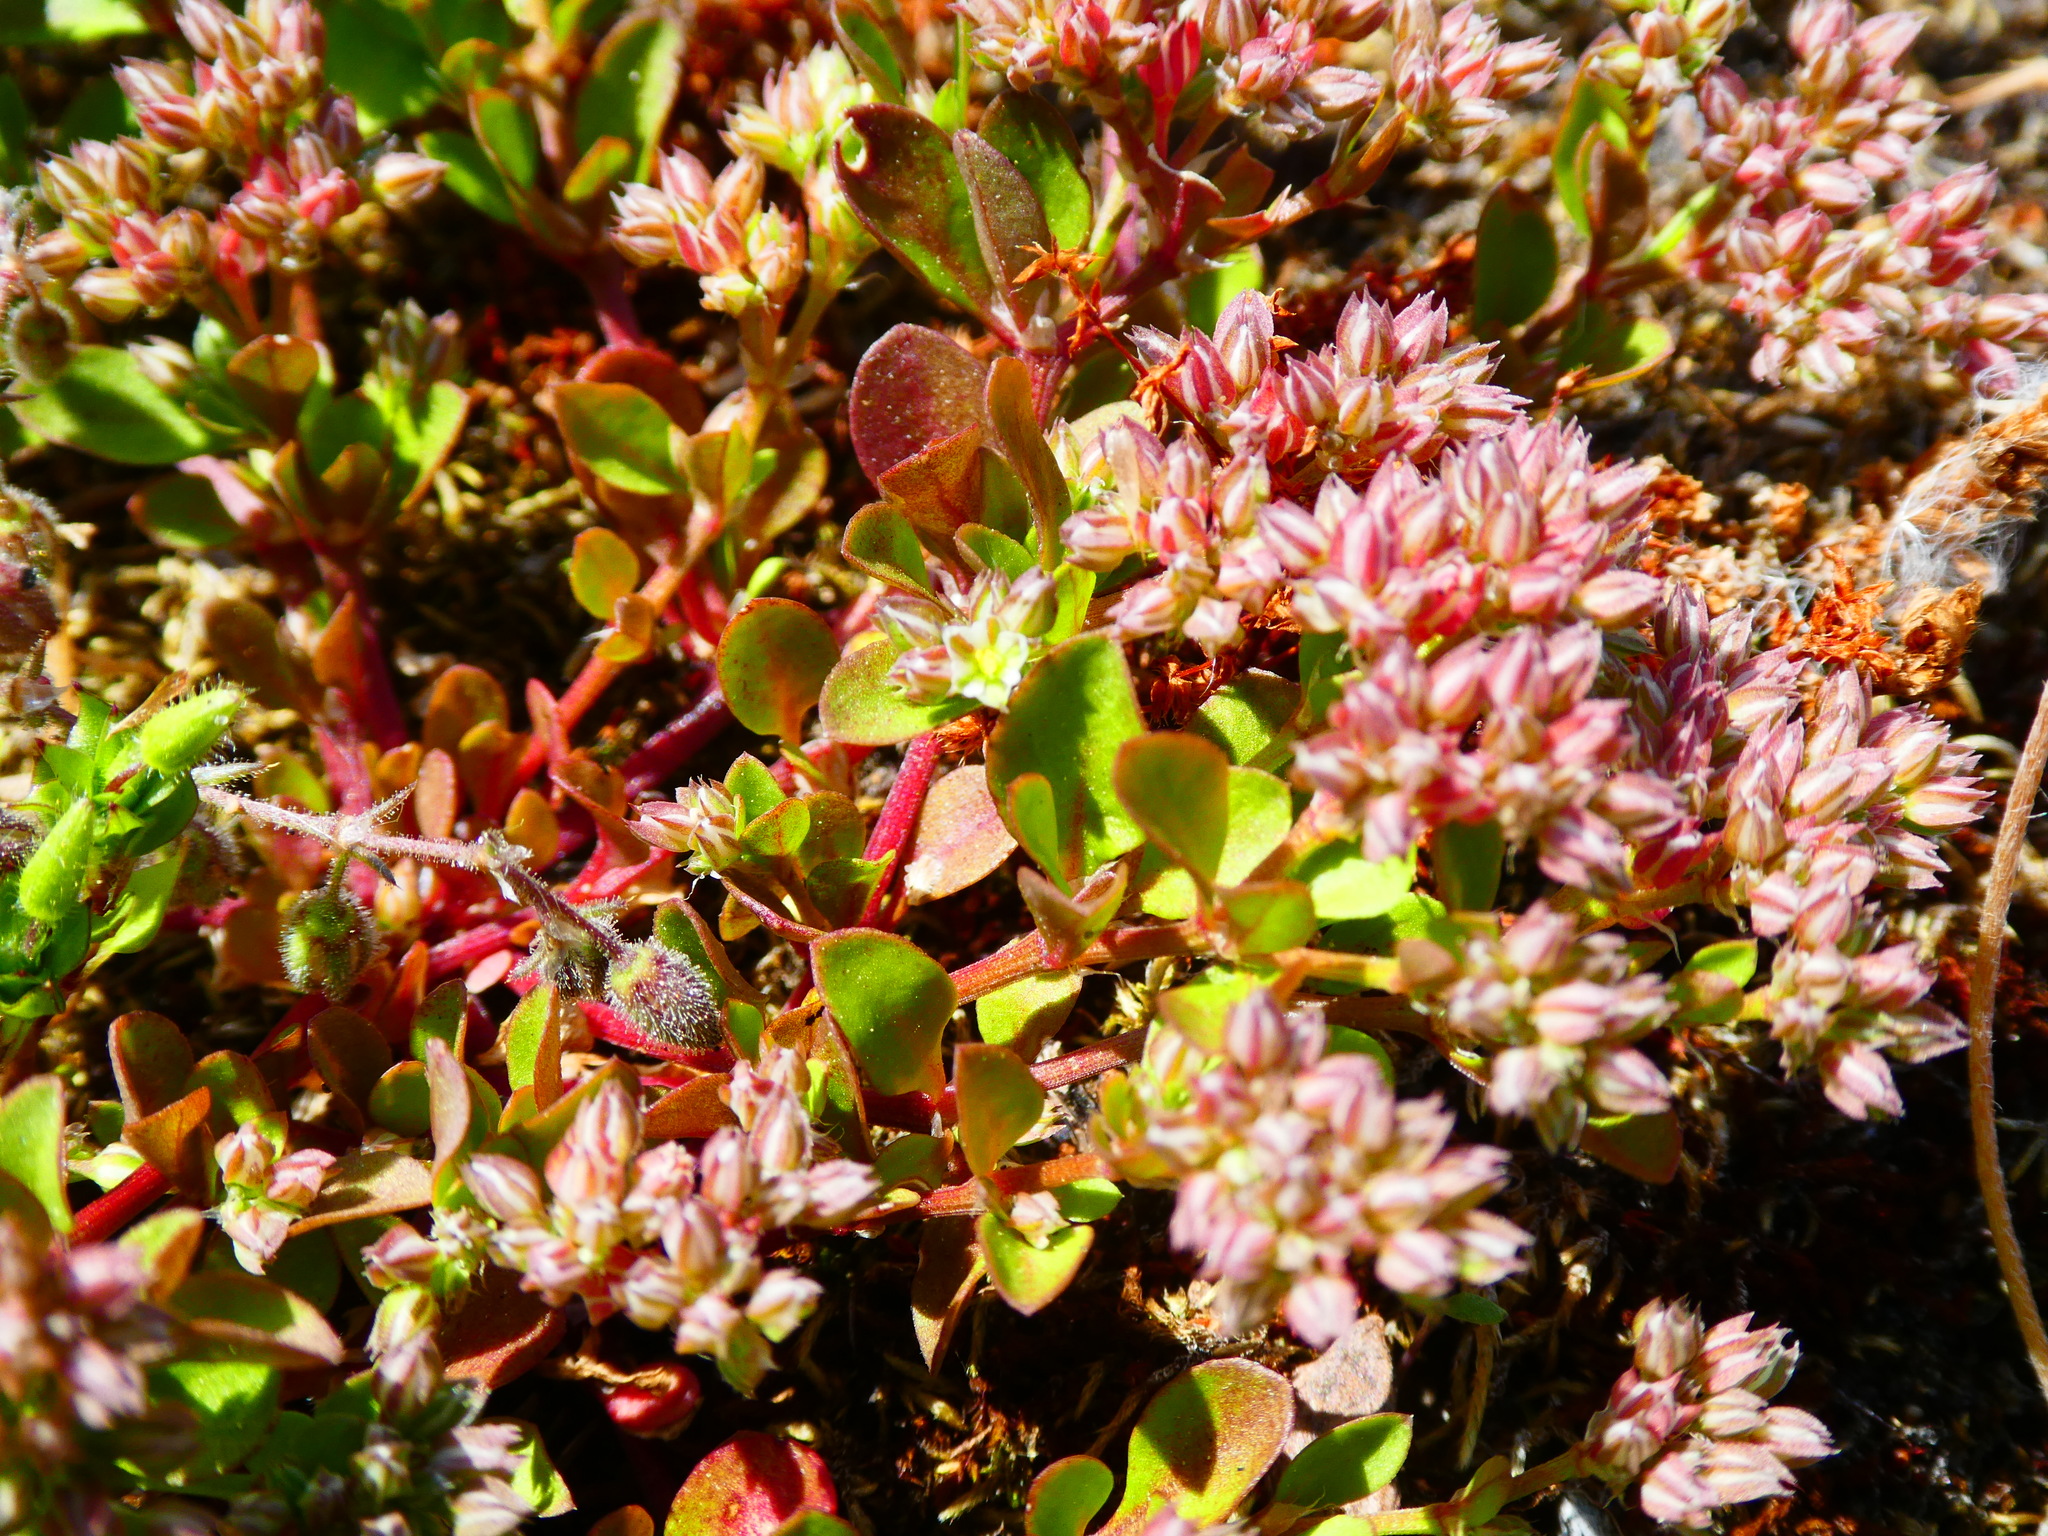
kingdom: Plantae
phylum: Tracheophyta
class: Magnoliopsida
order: Caryophyllales
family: Caryophyllaceae
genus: Polycarpon
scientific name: Polycarpon tetraphyllum
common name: Four-leaved all-seed
